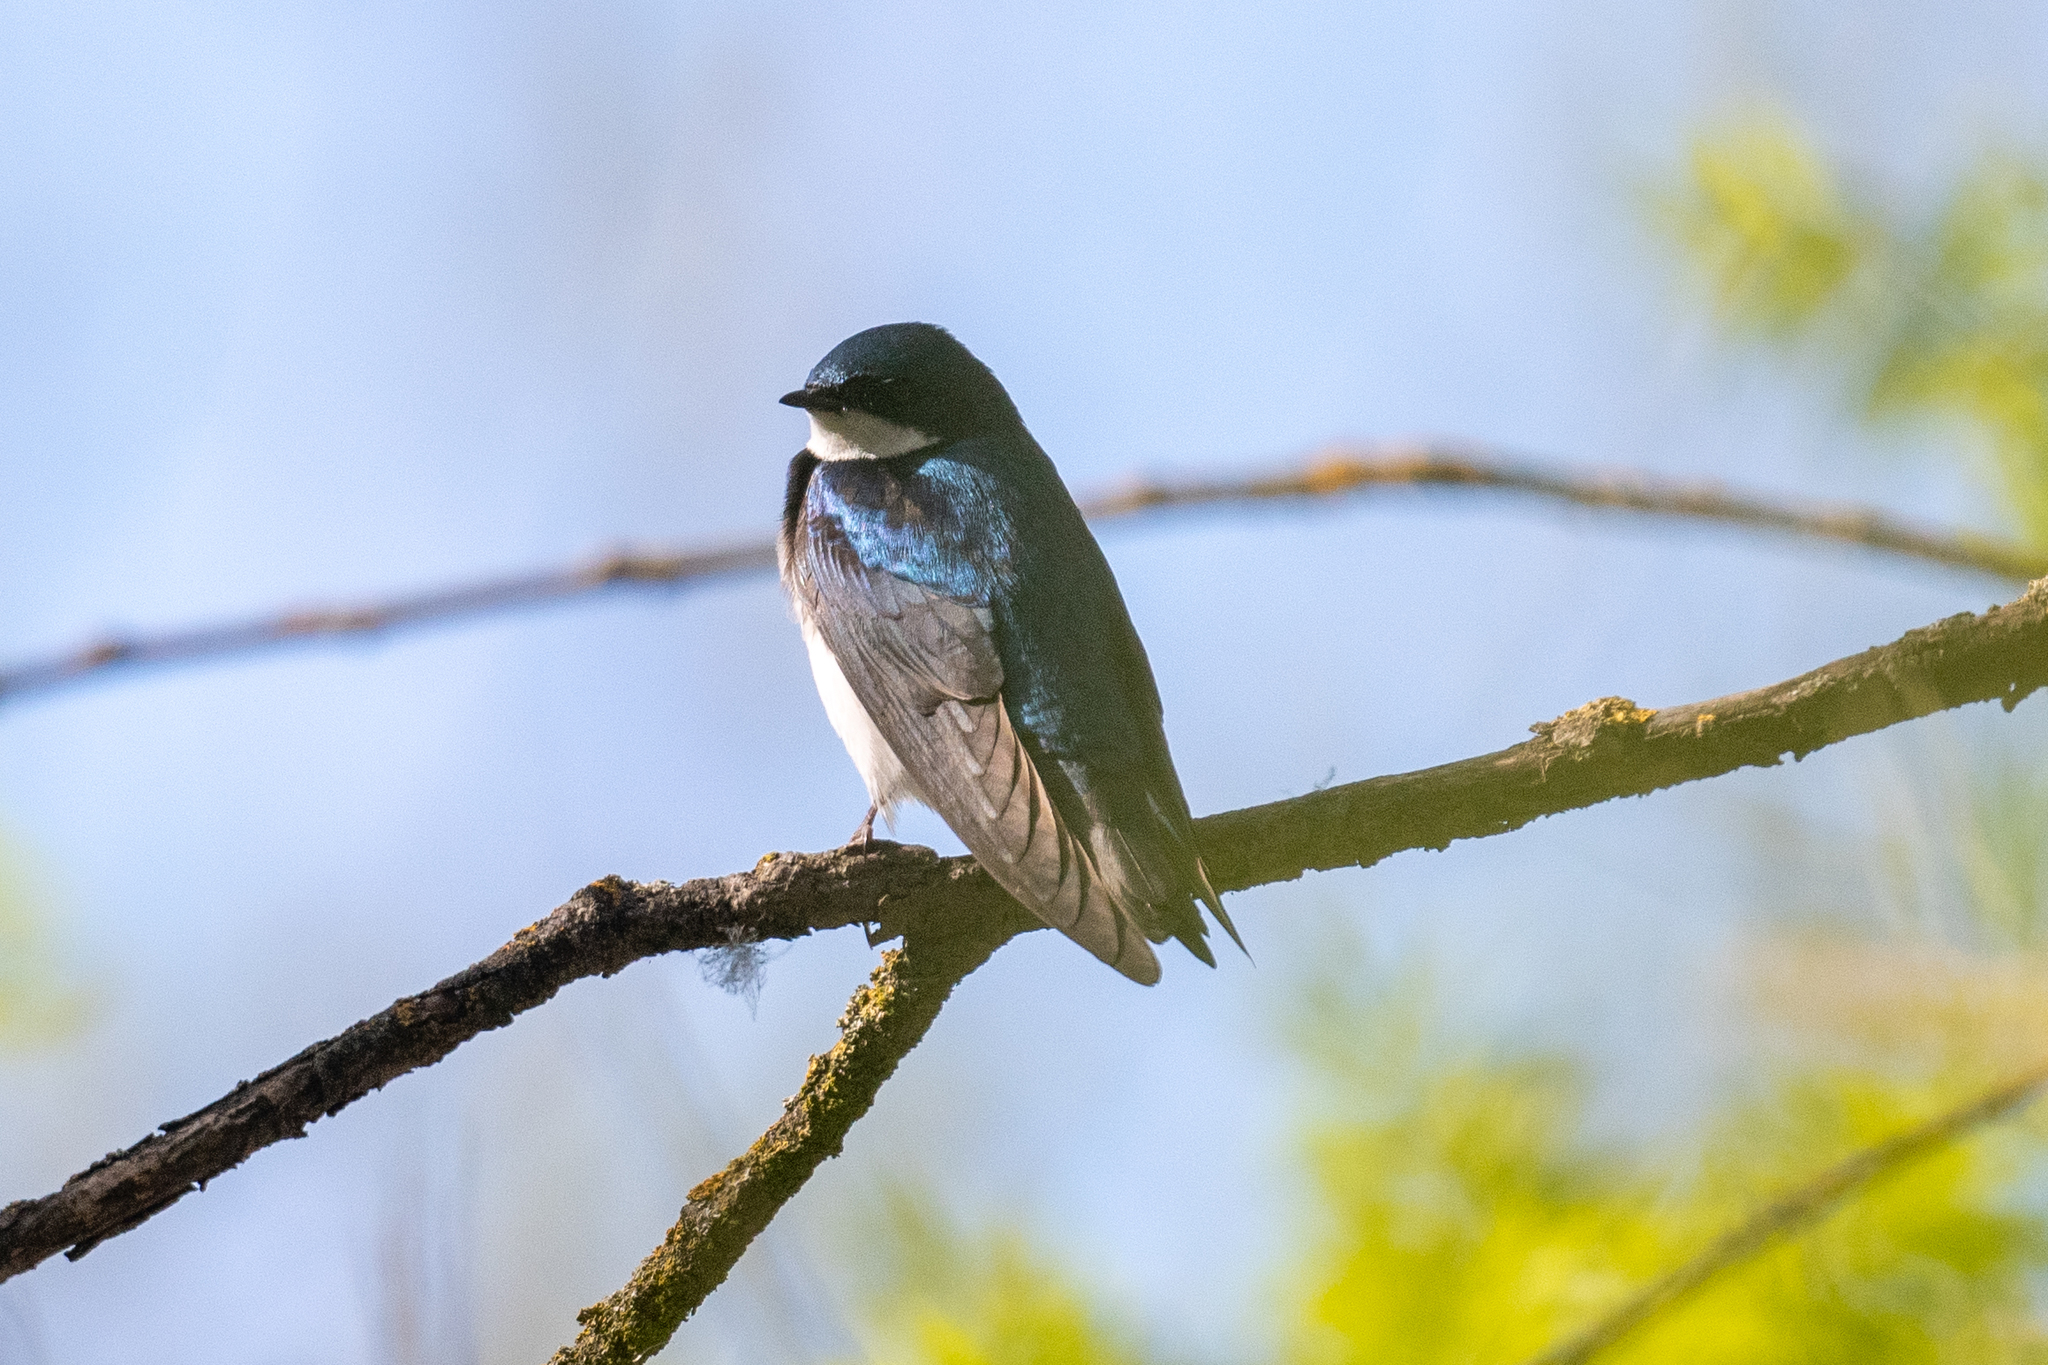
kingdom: Animalia
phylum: Chordata
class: Aves
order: Passeriformes
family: Hirundinidae
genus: Tachycineta
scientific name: Tachycineta bicolor
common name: Tree swallow
